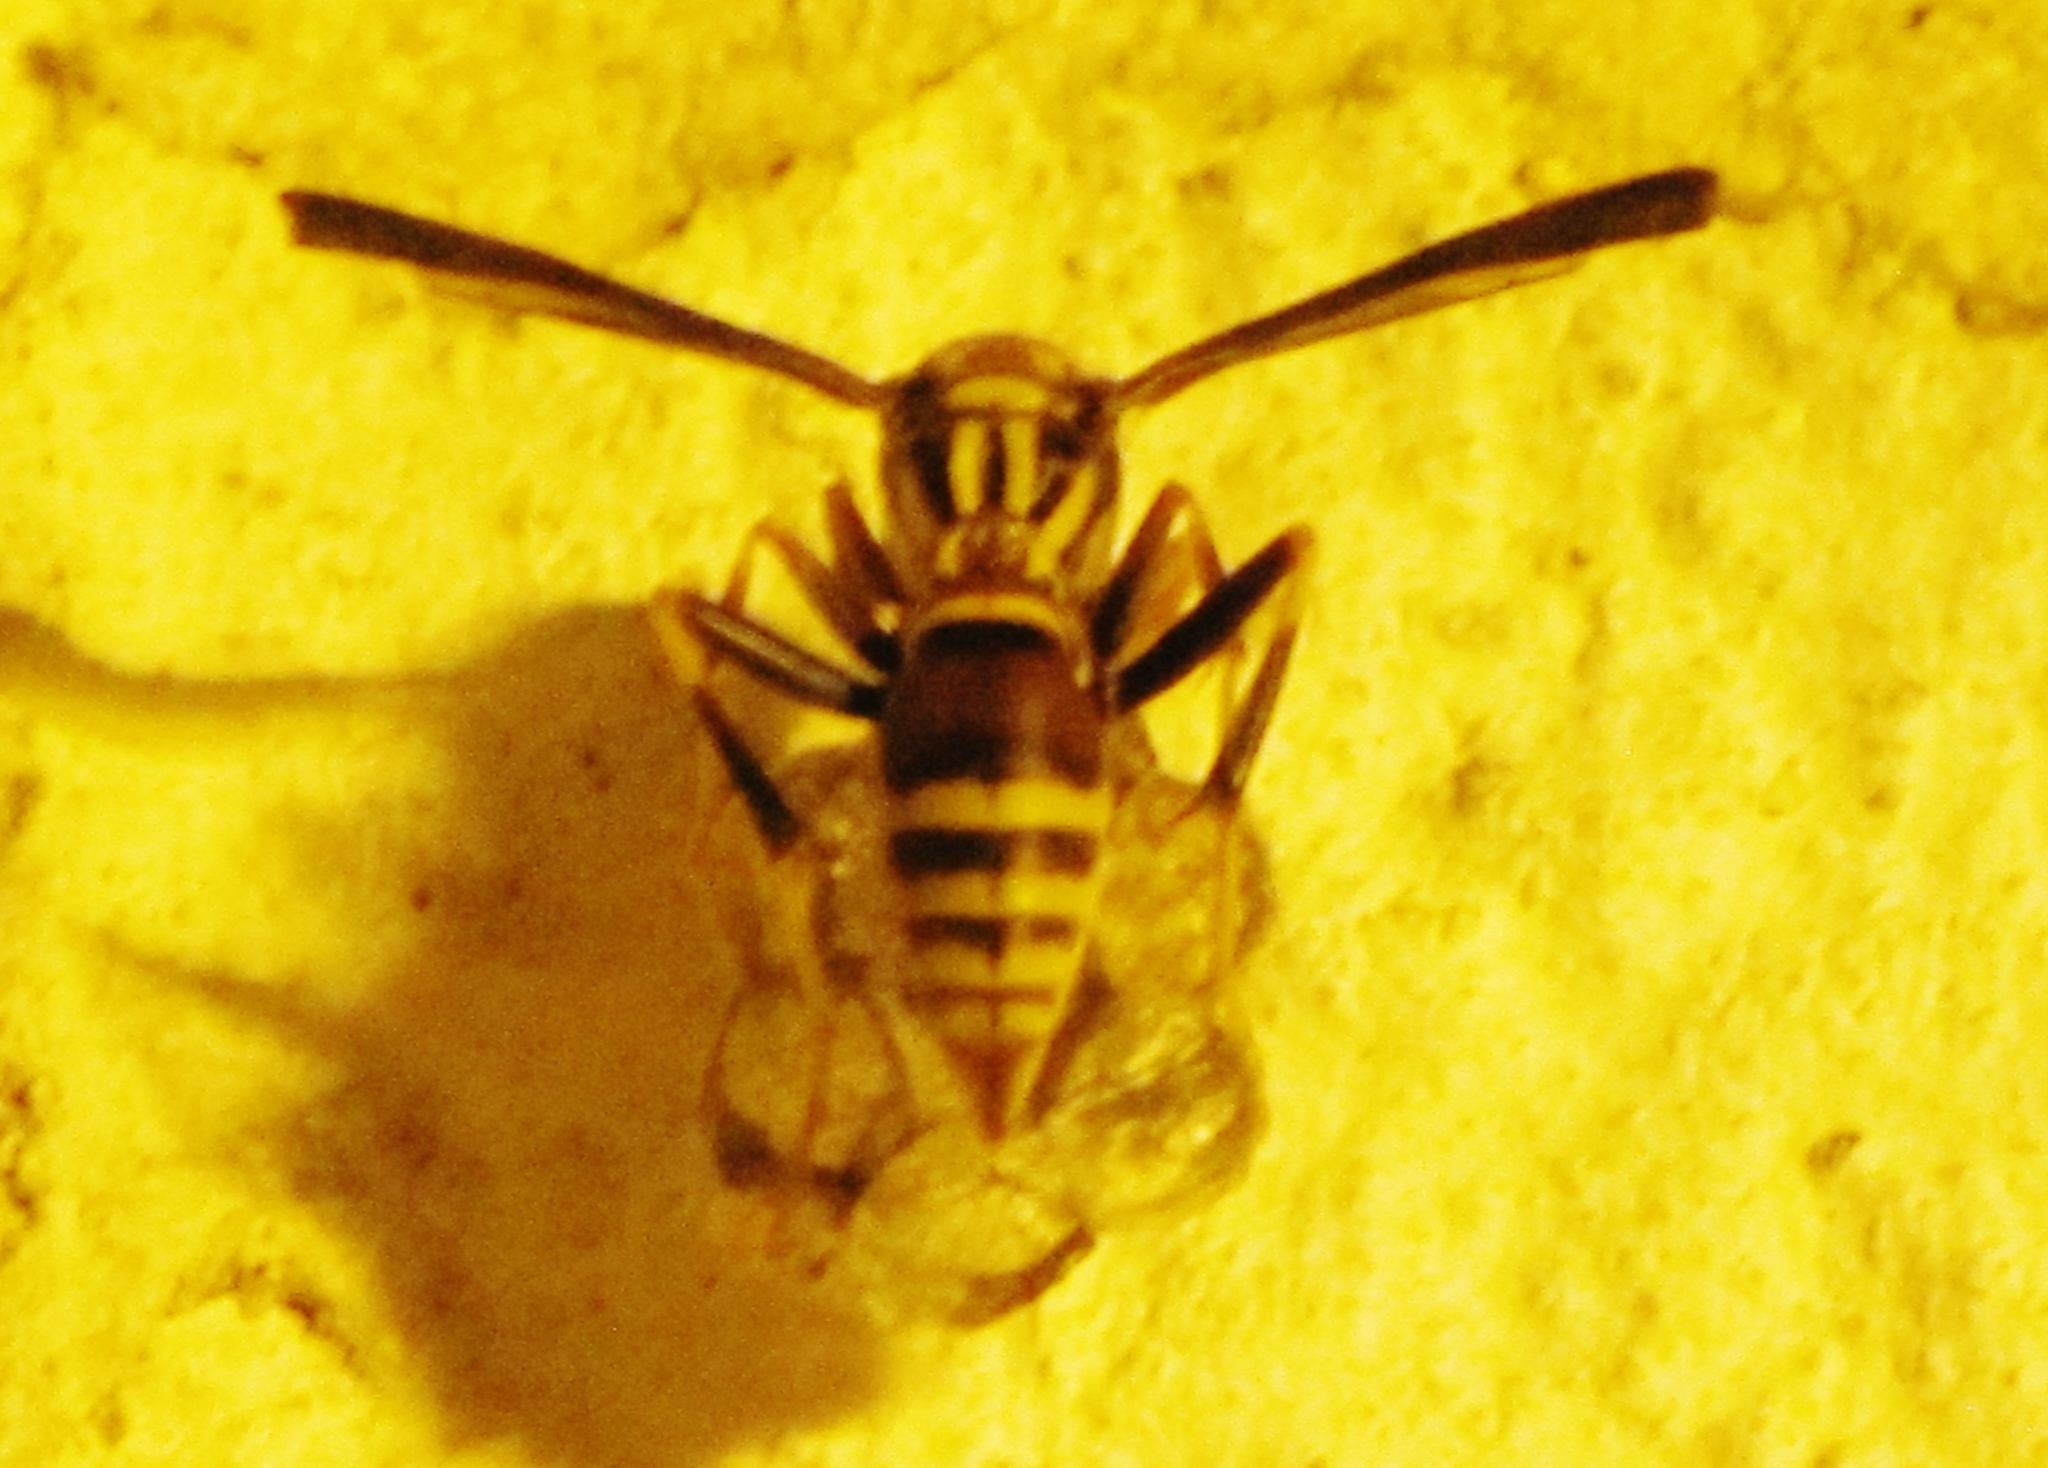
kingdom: Animalia
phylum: Arthropoda
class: Insecta
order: Hymenoptera
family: Eumenidae
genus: Polistes
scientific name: Polistes exclamans
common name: Paper wasp
